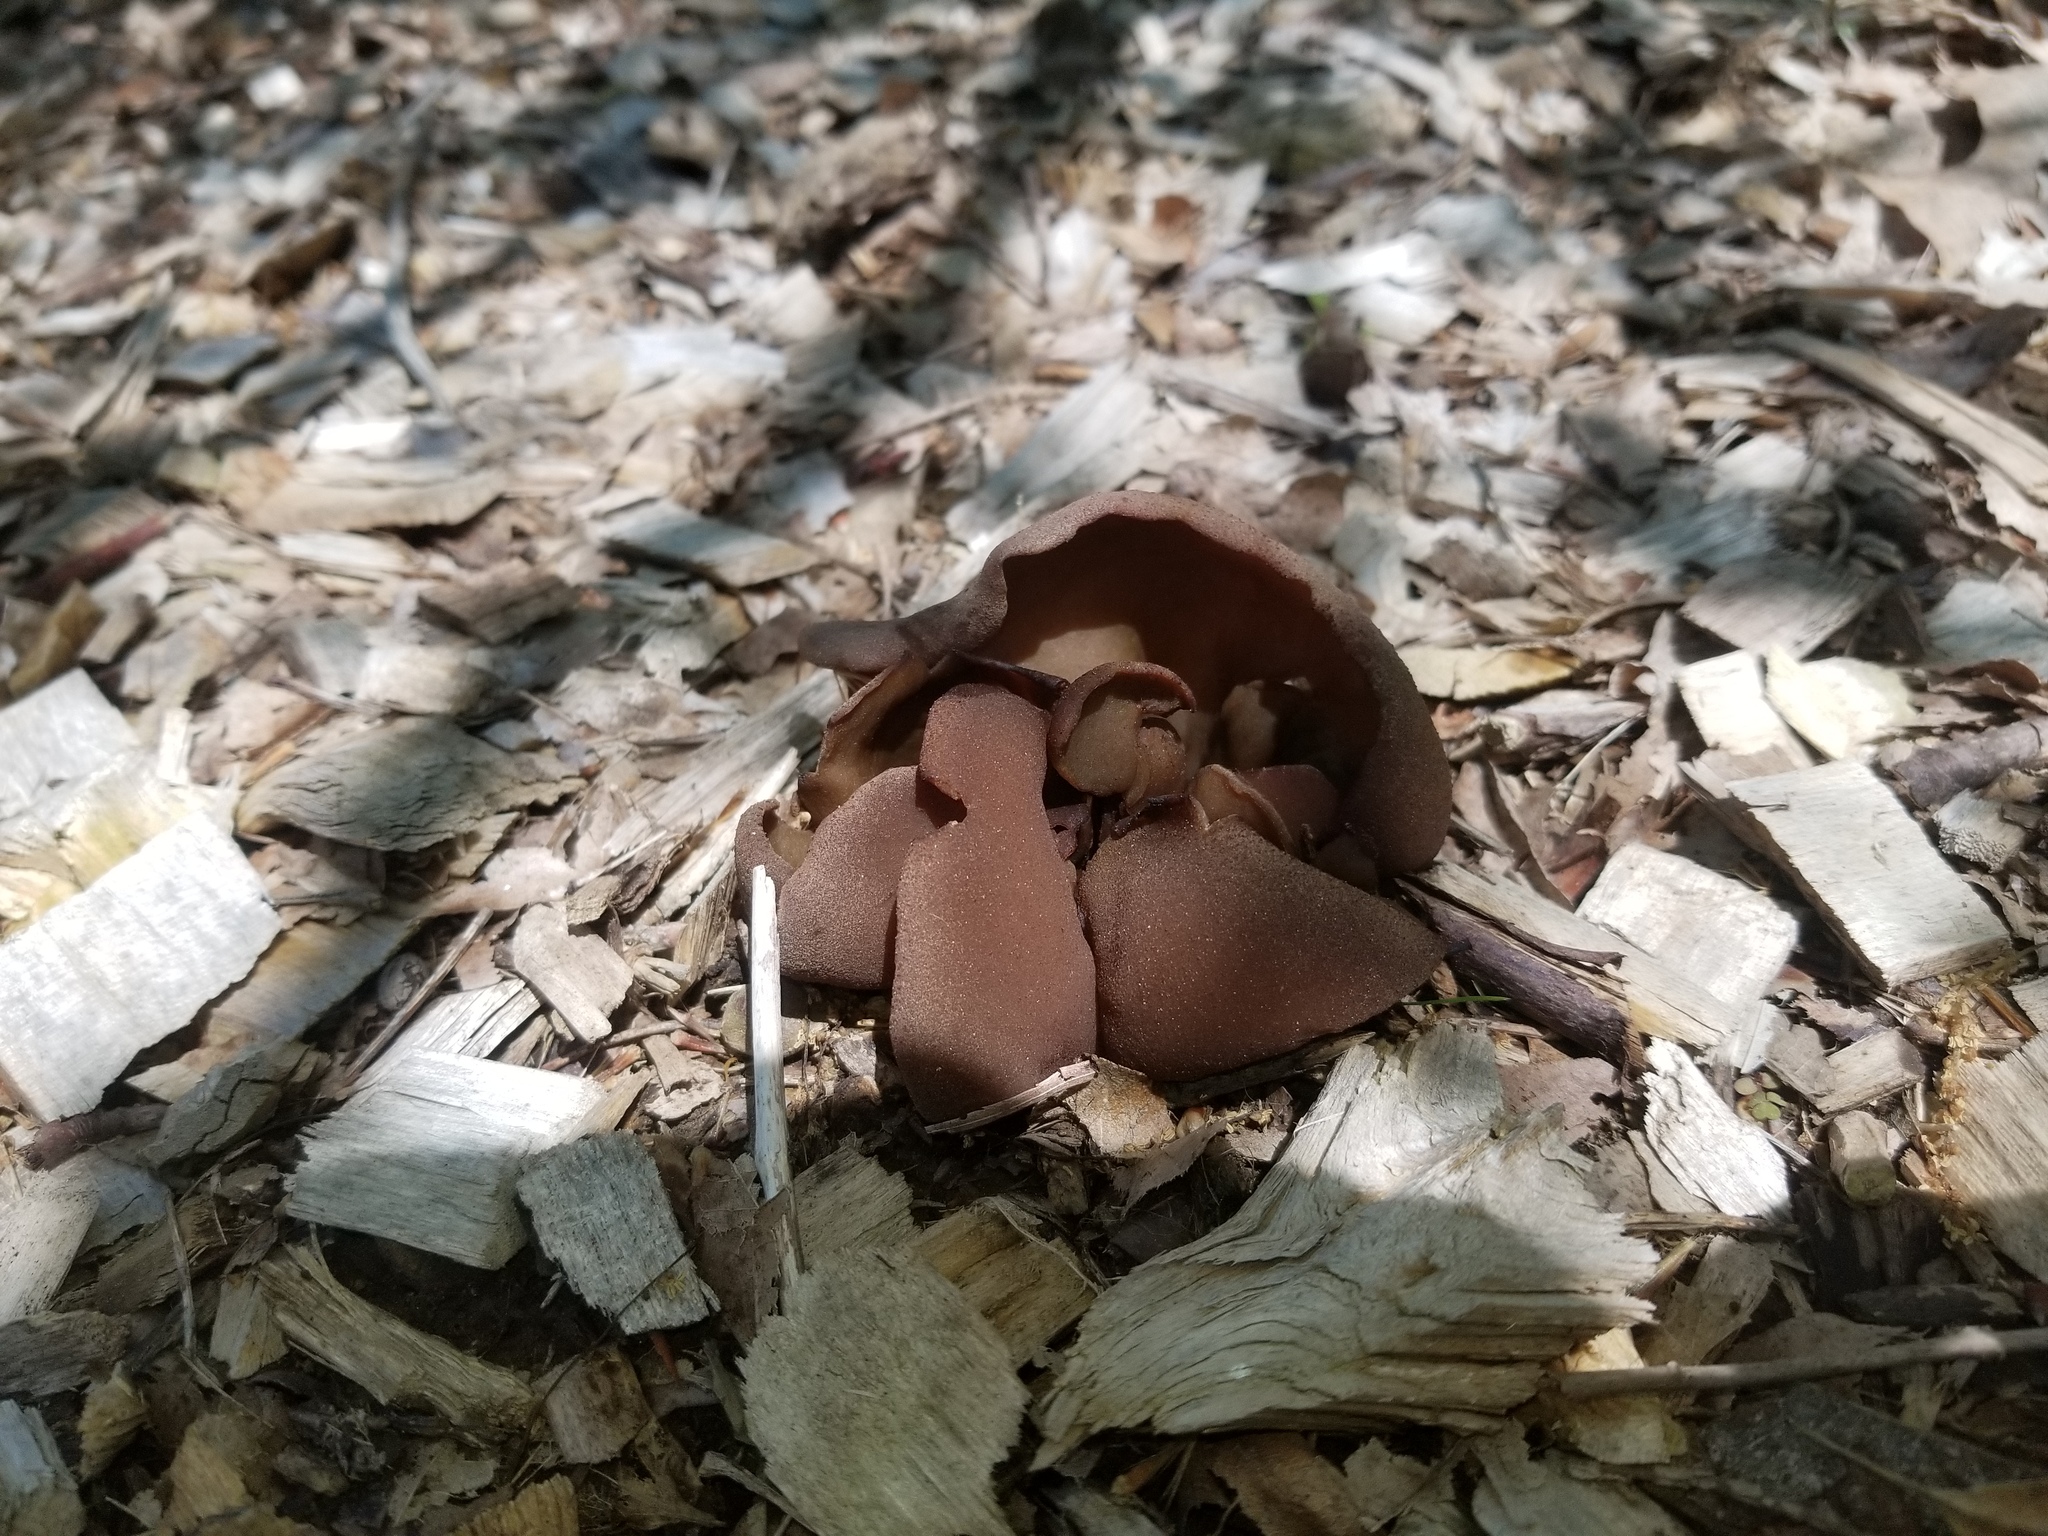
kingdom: Fungi
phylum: Ascomycota
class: Pezizomycetes
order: Pezizales
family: Pezizaceae
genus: Phylloscypha
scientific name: Phylloscypha phyllogena
